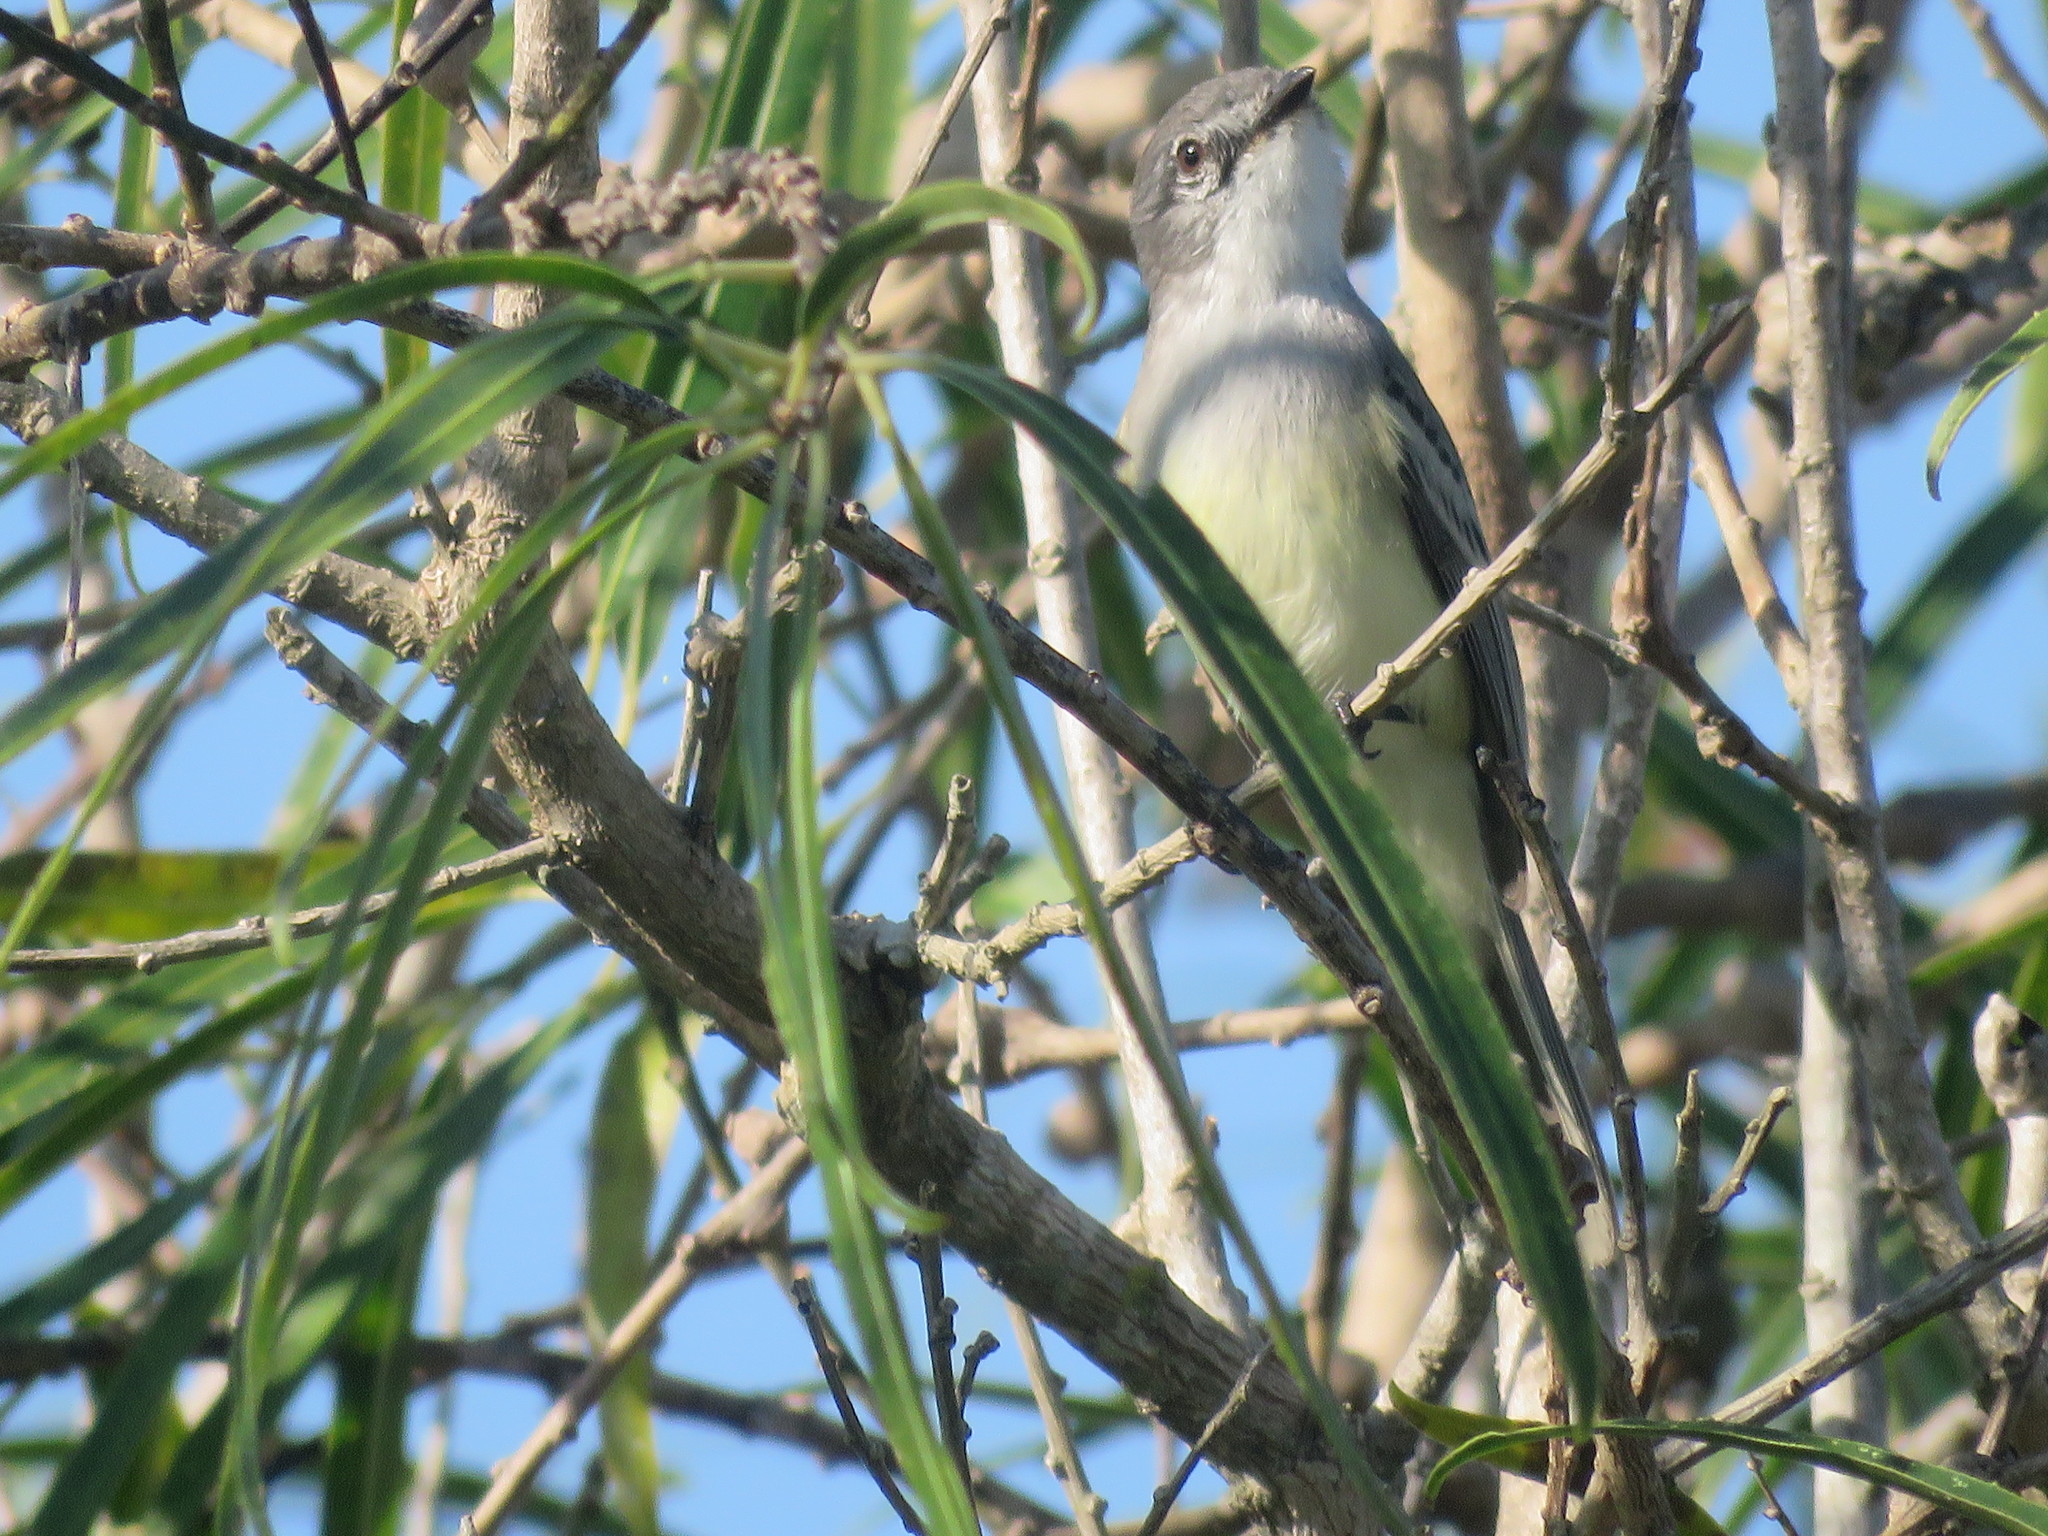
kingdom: Animalia
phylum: Chordata
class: Aves
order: Passeriformes
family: Tyrannidae
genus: Suiriri
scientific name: Suiriri suiriri
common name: Suiriri flycatcher
